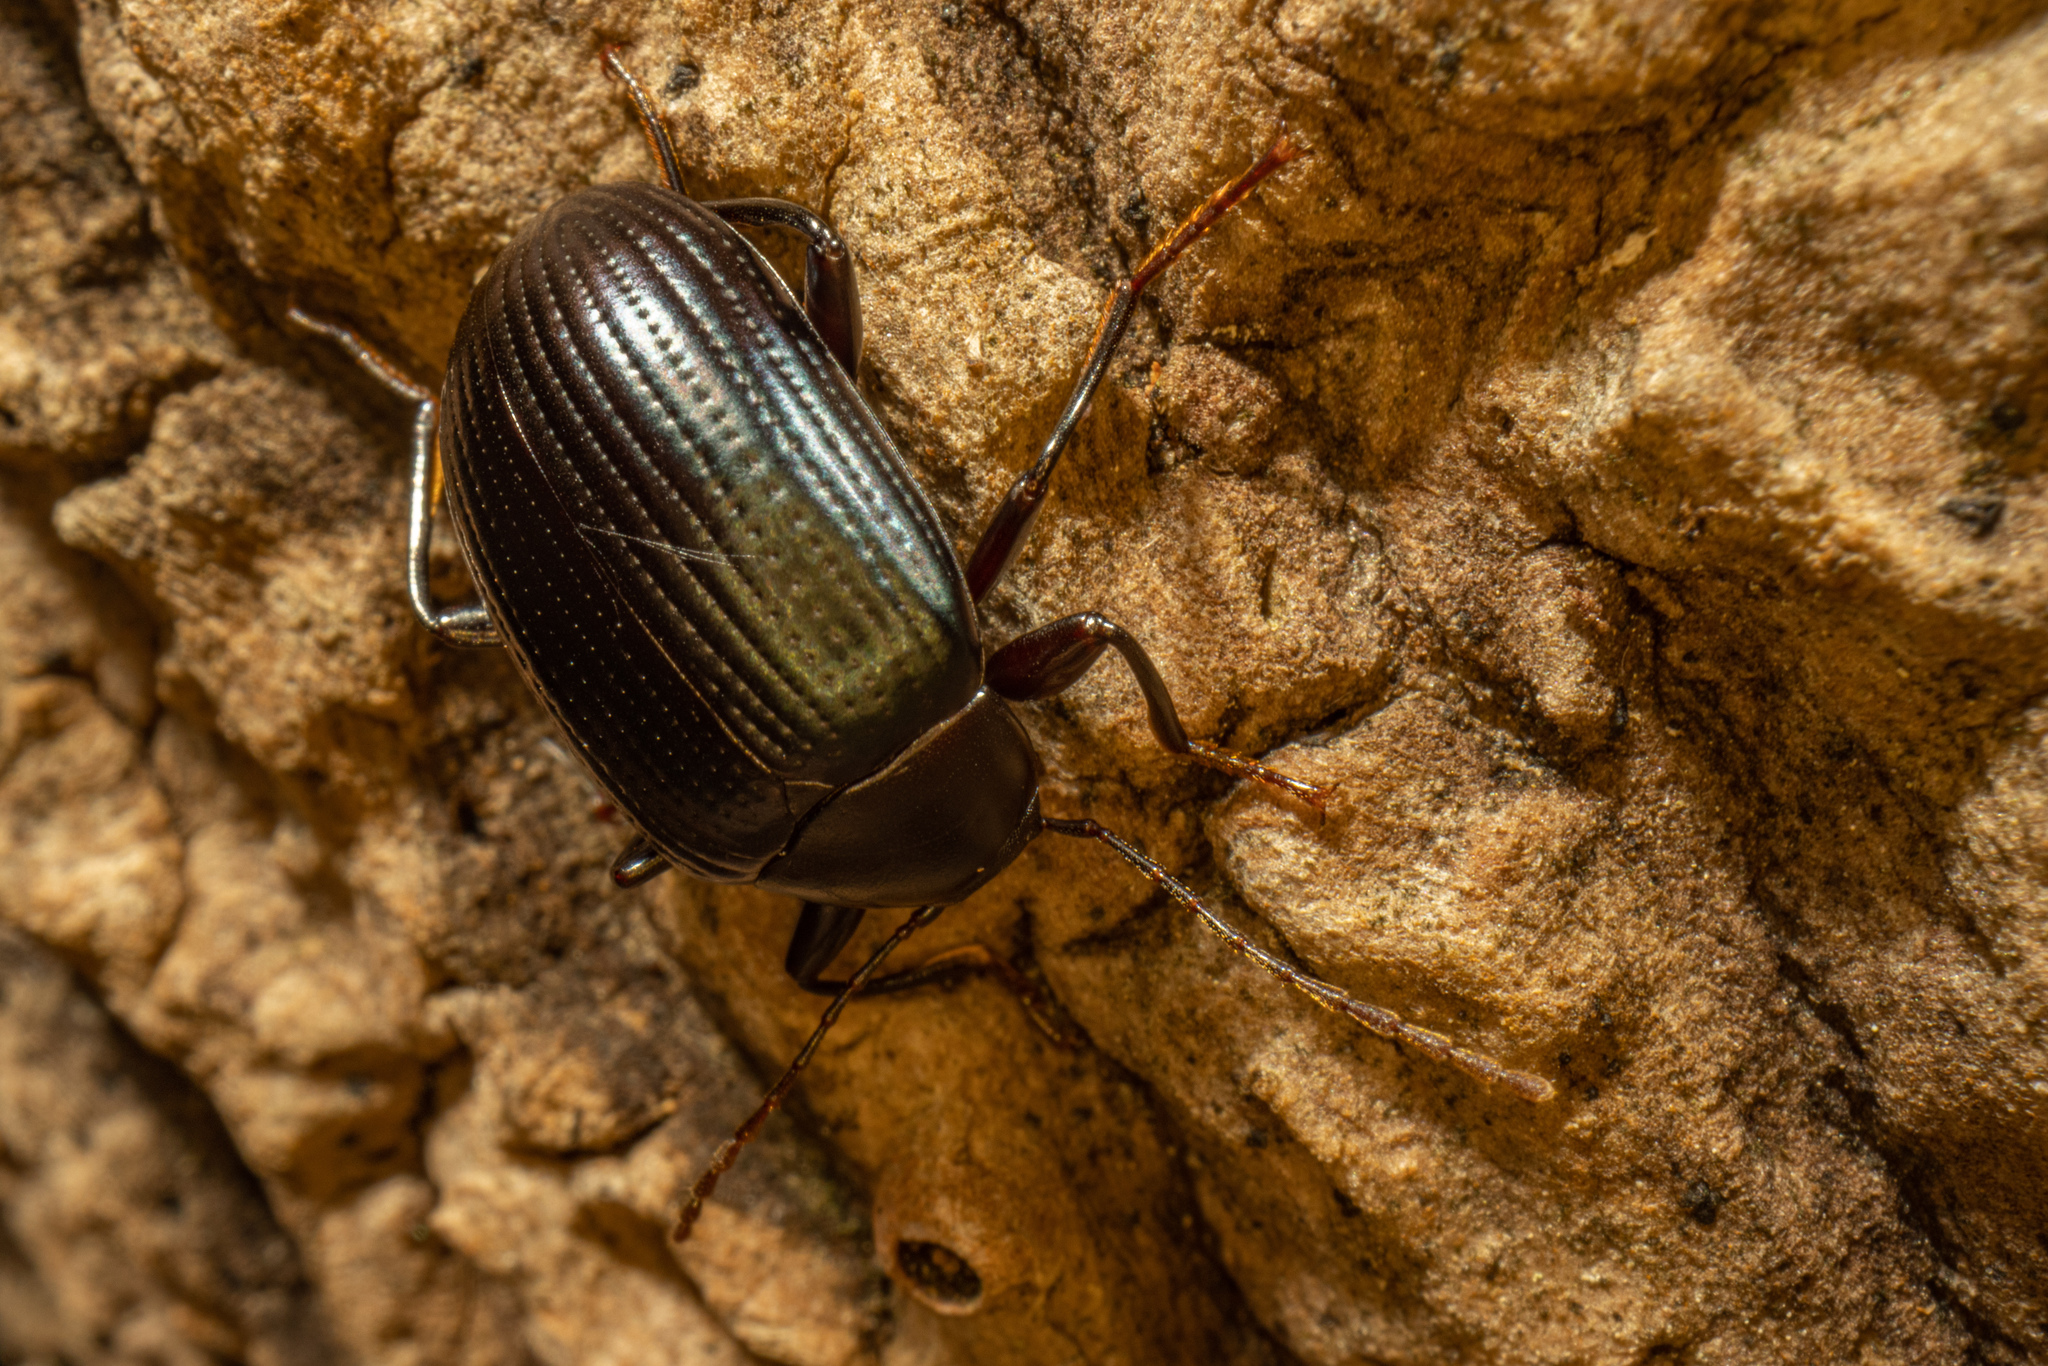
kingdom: Animalia
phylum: Arthropoda
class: Insecta
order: Coleoptera
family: Tenebrionidae
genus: Amarygmus
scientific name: Amarygmus
